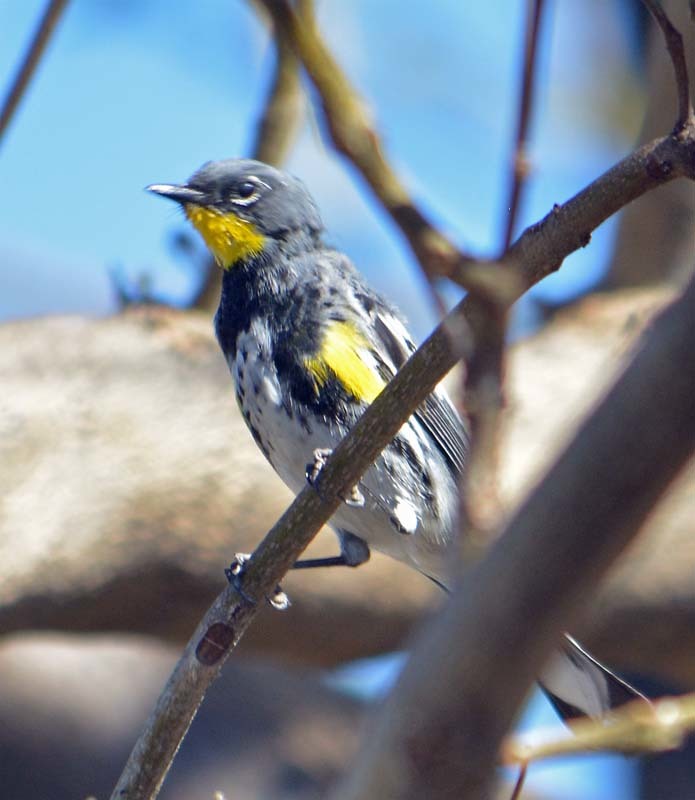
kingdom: Animalia
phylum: Chordata
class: Aves
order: Passeriformes
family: Parulidae
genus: Setophaga
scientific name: Setophaga auduboni
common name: Audubon's warbler
